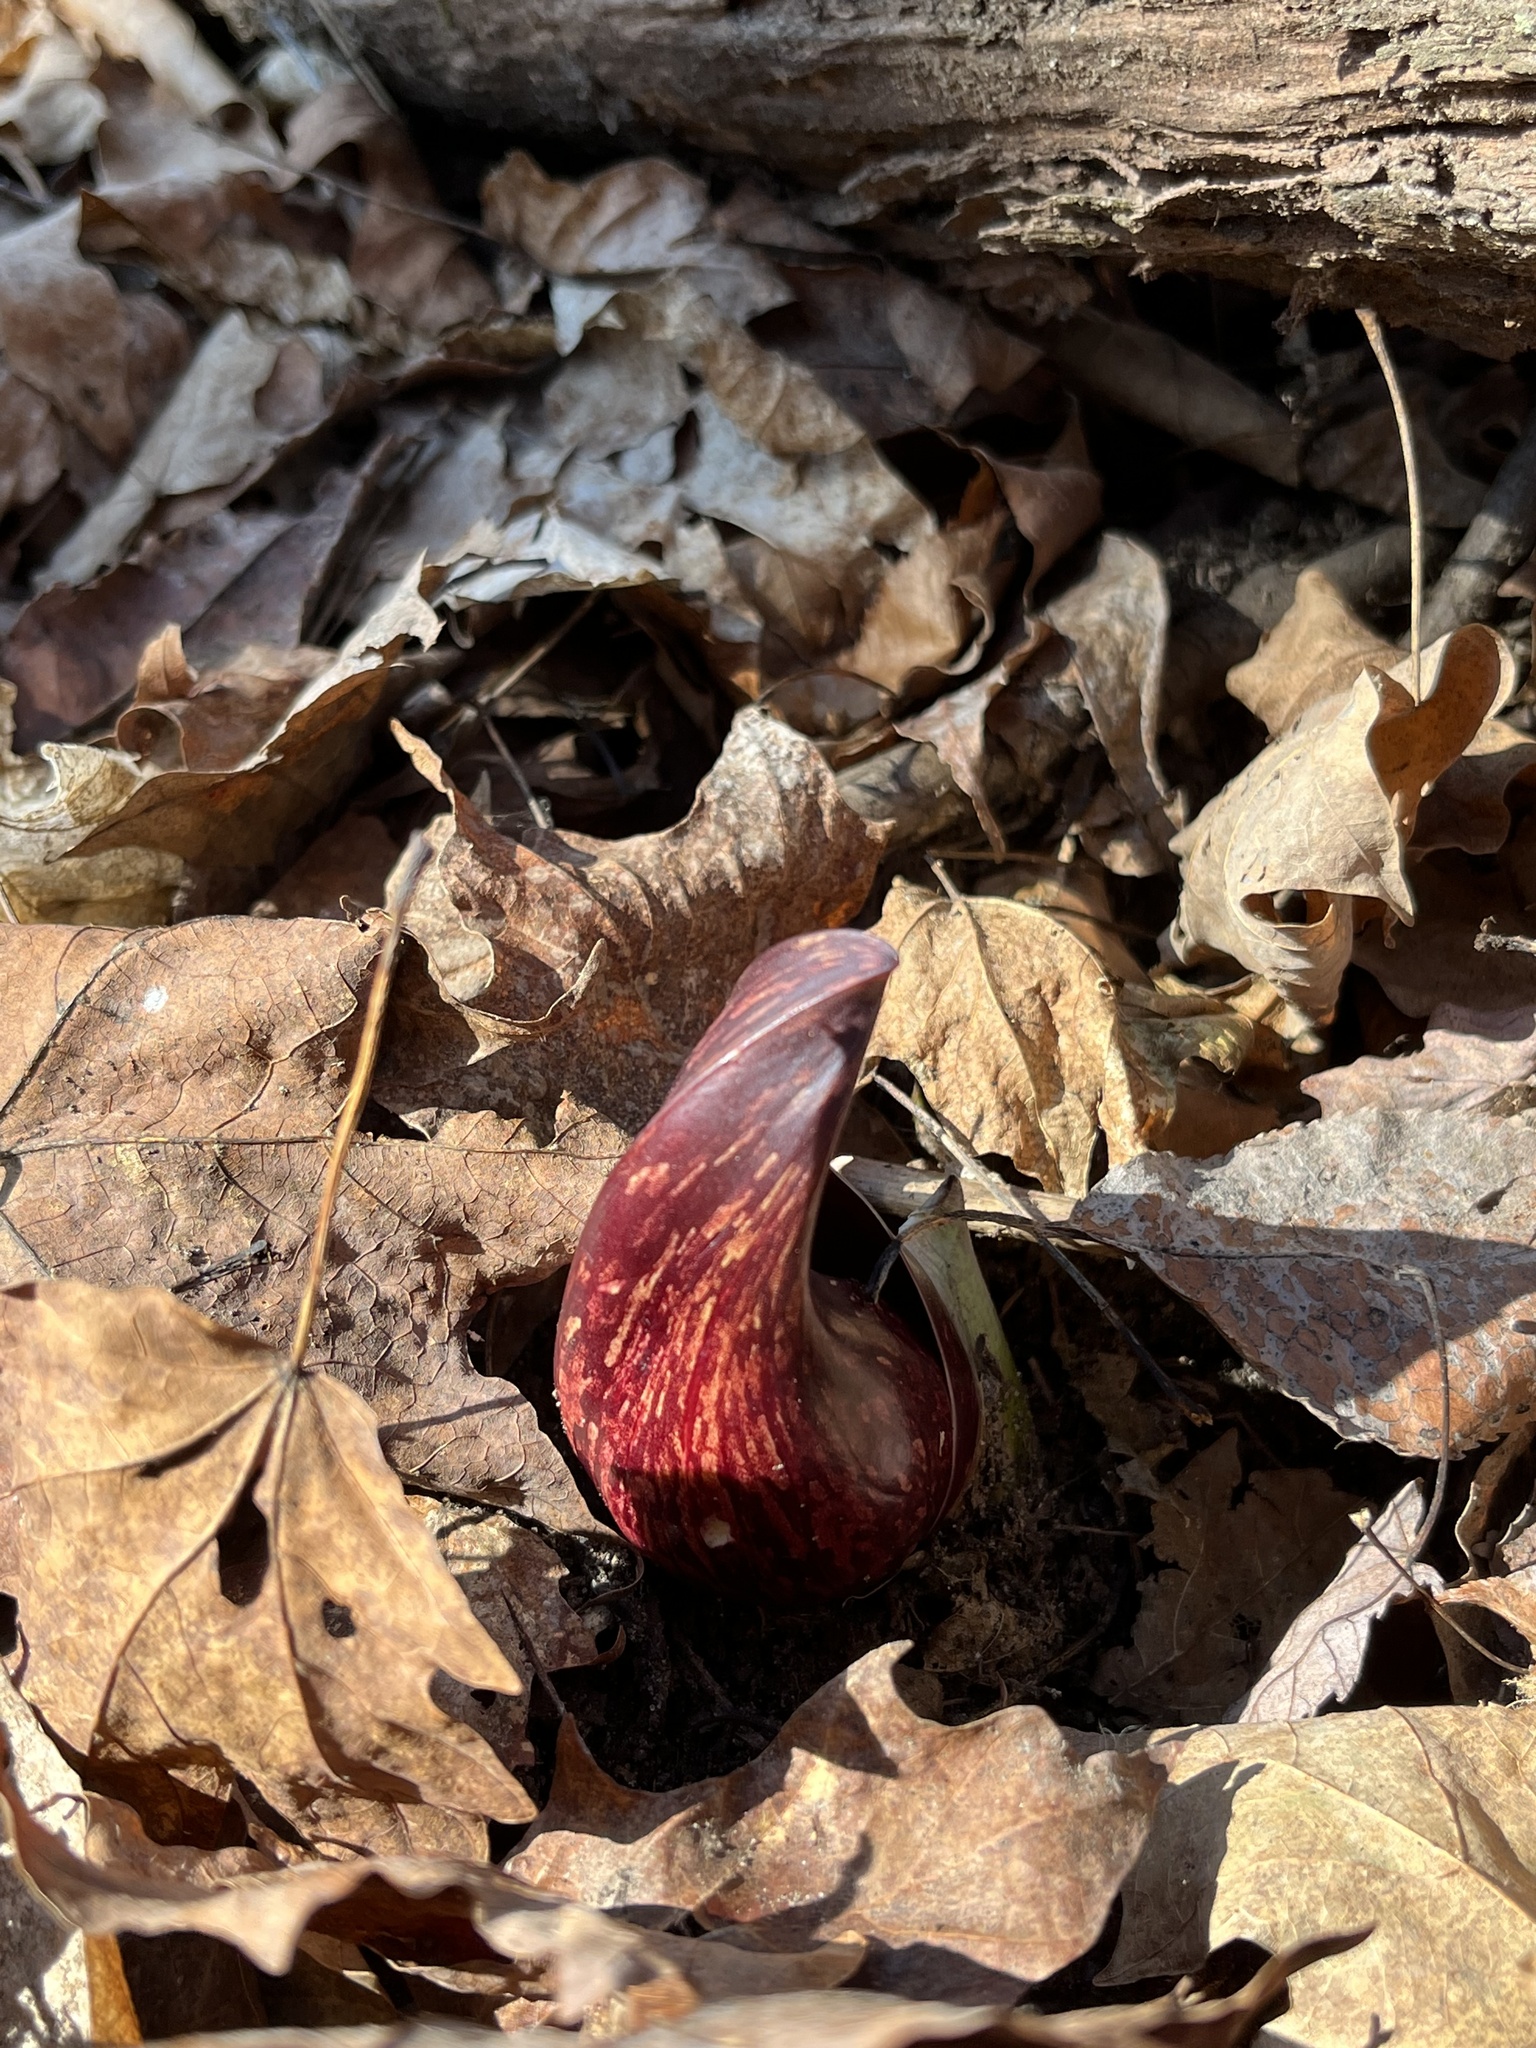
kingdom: Plantae
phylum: Tracheophyta
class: Liliopsida
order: Alismatales
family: Araceae
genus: Symplocarpus
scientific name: Symplocarpus foetidus
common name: Eastern skunk cabbage
